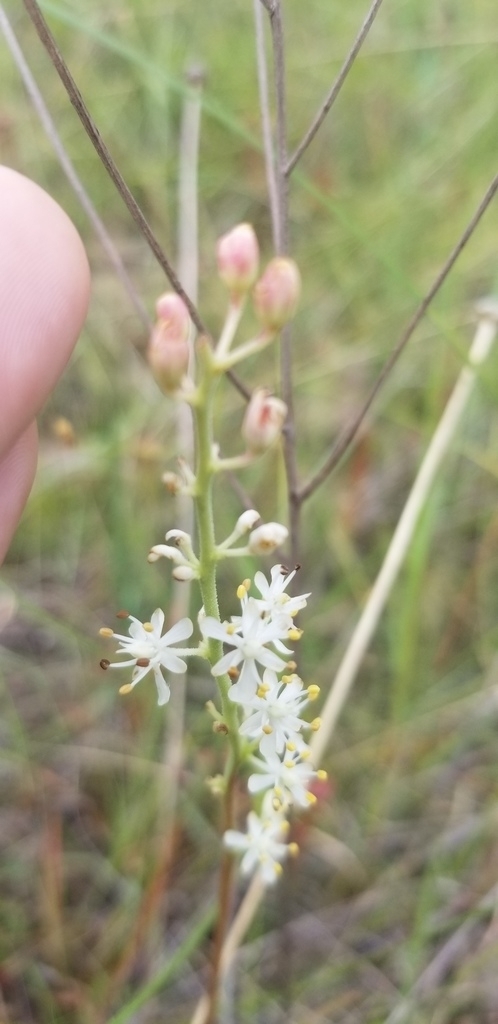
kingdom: Plantae
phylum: Tracheophyta
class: Liliopsida
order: Alismatales
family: Tofieldiaceae
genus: Triantha
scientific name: Triantha racemosa
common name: Coastal false asphodel
